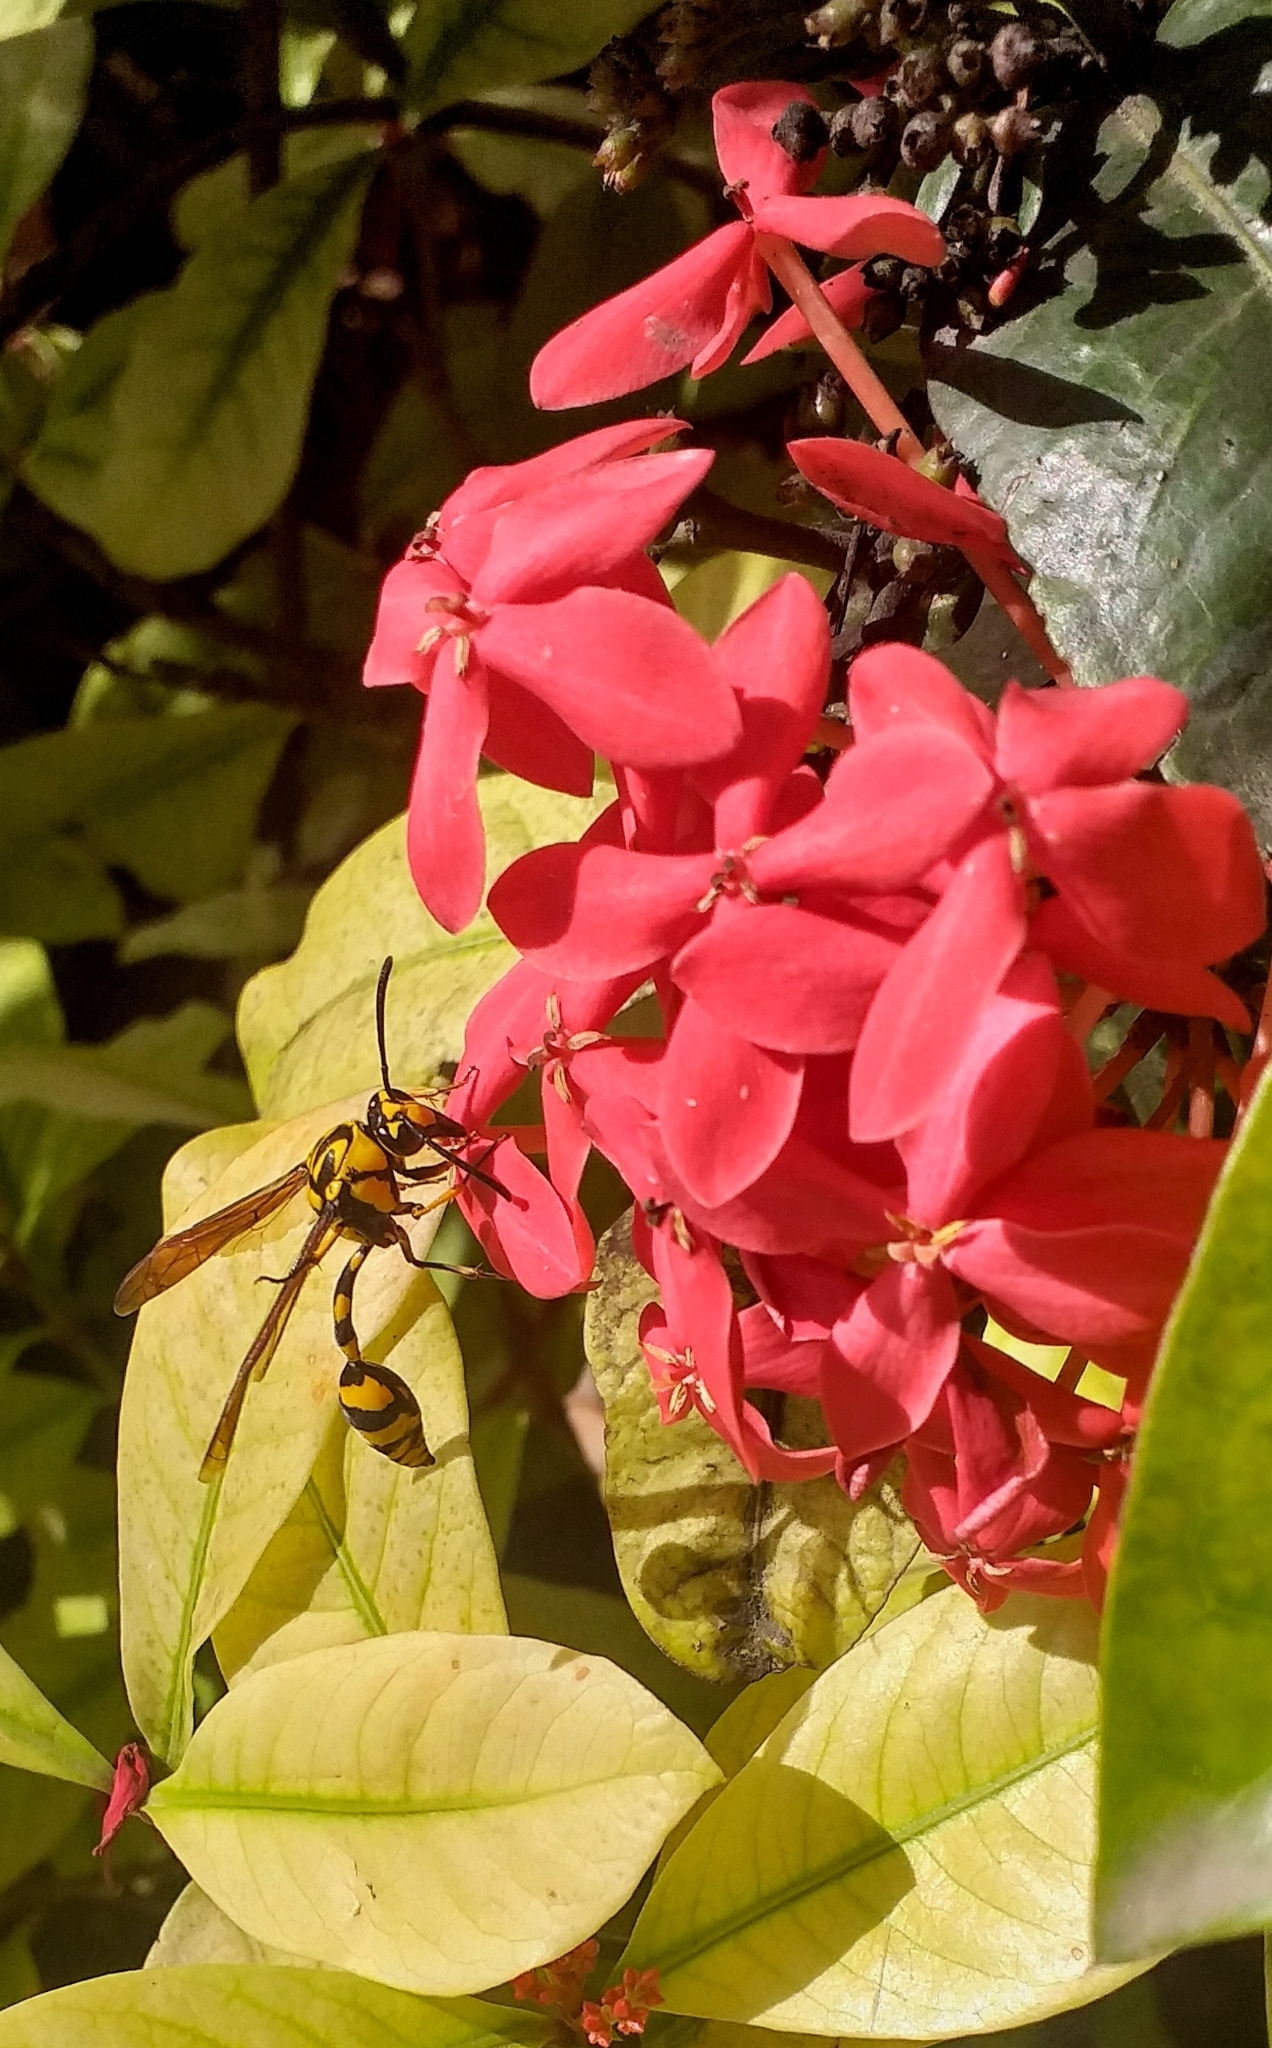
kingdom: Animalia
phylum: Arthropoda
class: Insecta
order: Hymenoptera
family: Eumenidae
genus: Phimenes
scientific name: Phimenes flavopictus
